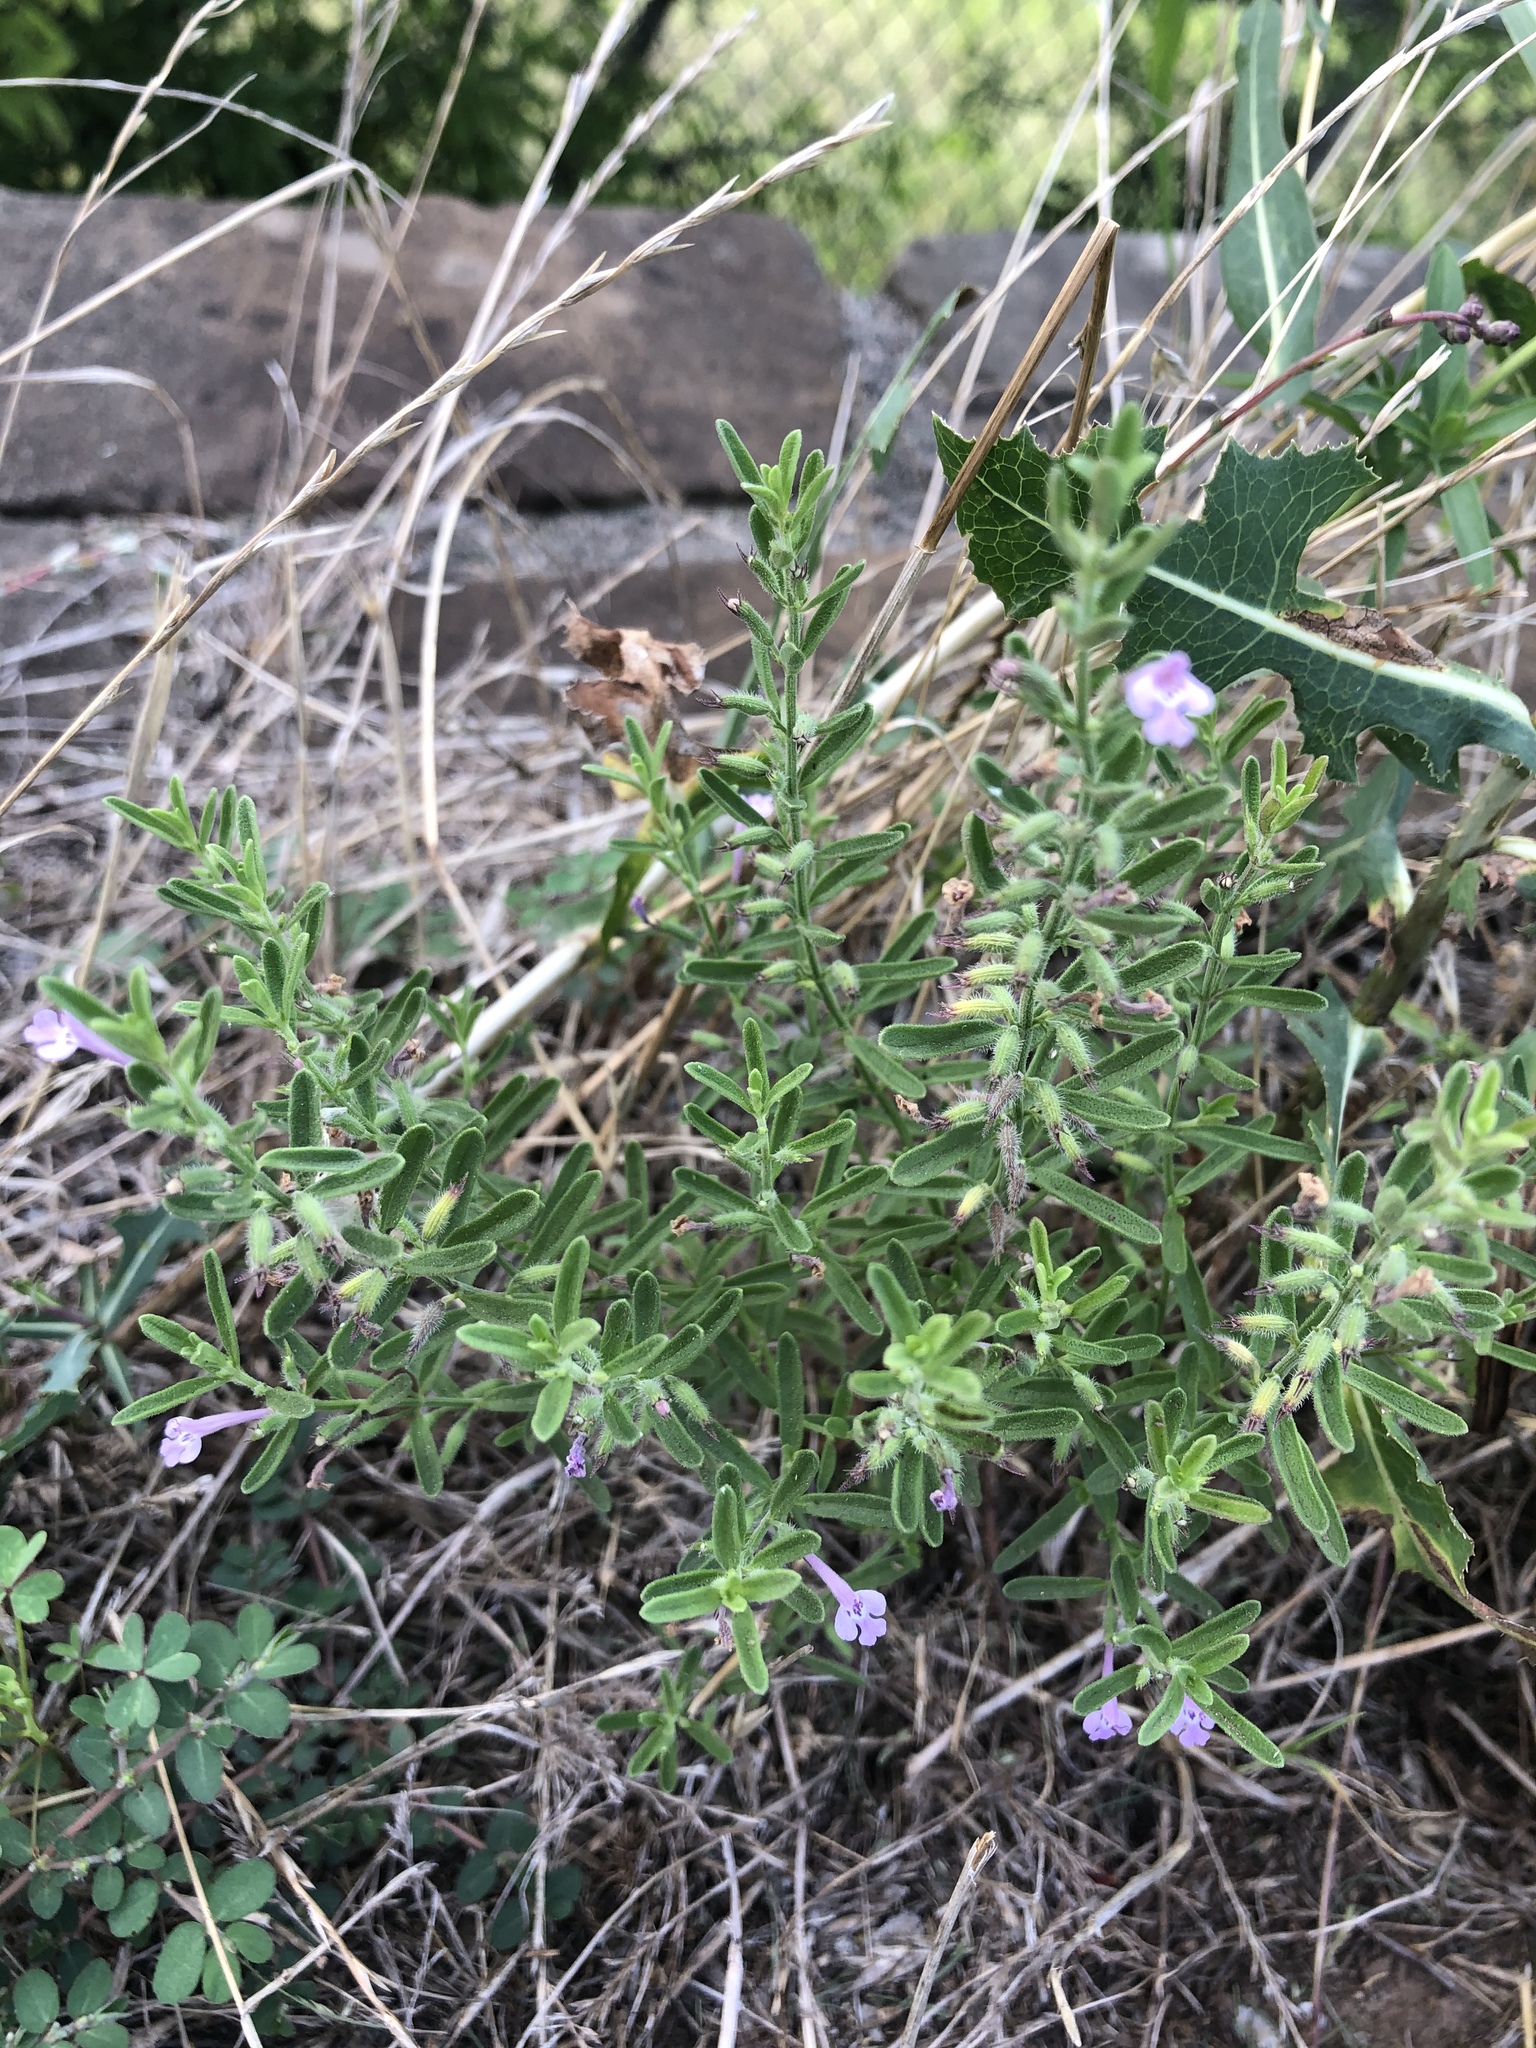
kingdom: Plantae
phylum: Tracheophyta
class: Magnoliopsida
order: Lamiales
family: Lamiaceae
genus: Hedeoma
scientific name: Hedeoma reverchonii
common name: Reverchon's false penny-royal
